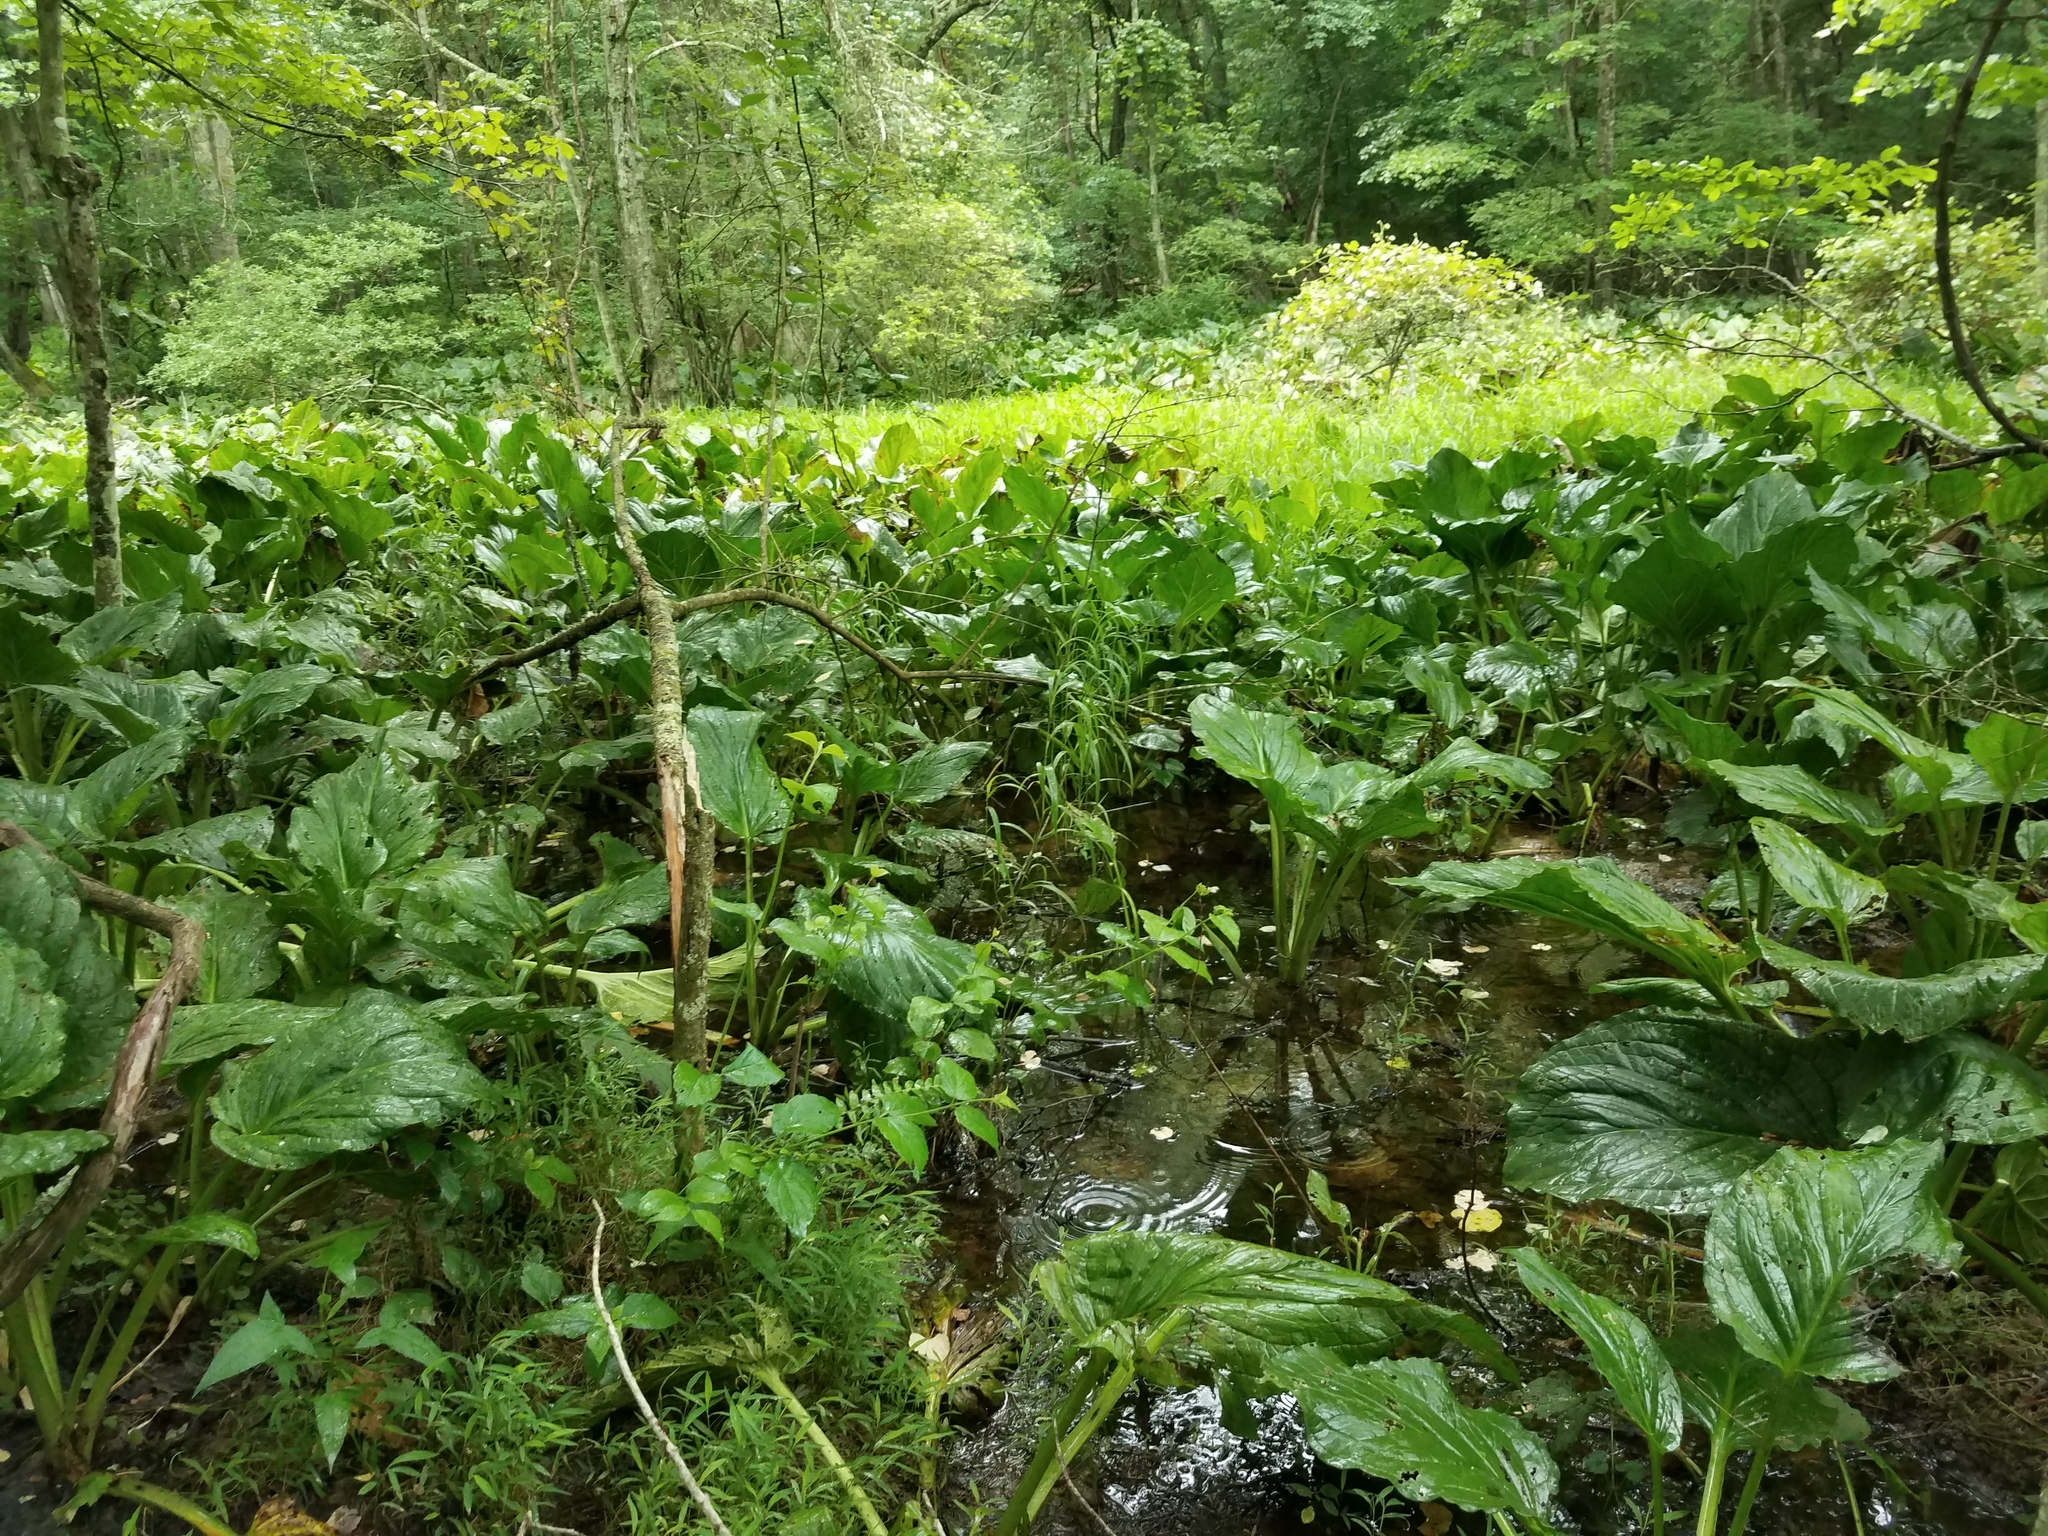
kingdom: Plantae
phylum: Tracheophyta
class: Liliopsida
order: Alismatales
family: Araceae
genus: Symplocarpus
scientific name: Symplocarpus foetidus
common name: Eastern skunk cabbage
